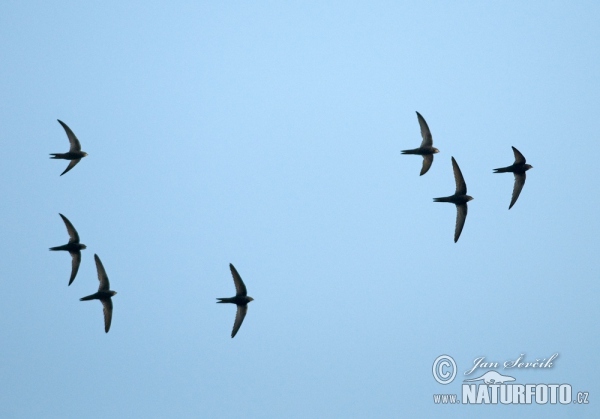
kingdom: Animalia
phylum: Chordata
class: Aves
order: Apodiformes
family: Apodidae
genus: Apus
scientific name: Apus apus
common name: Common swift
